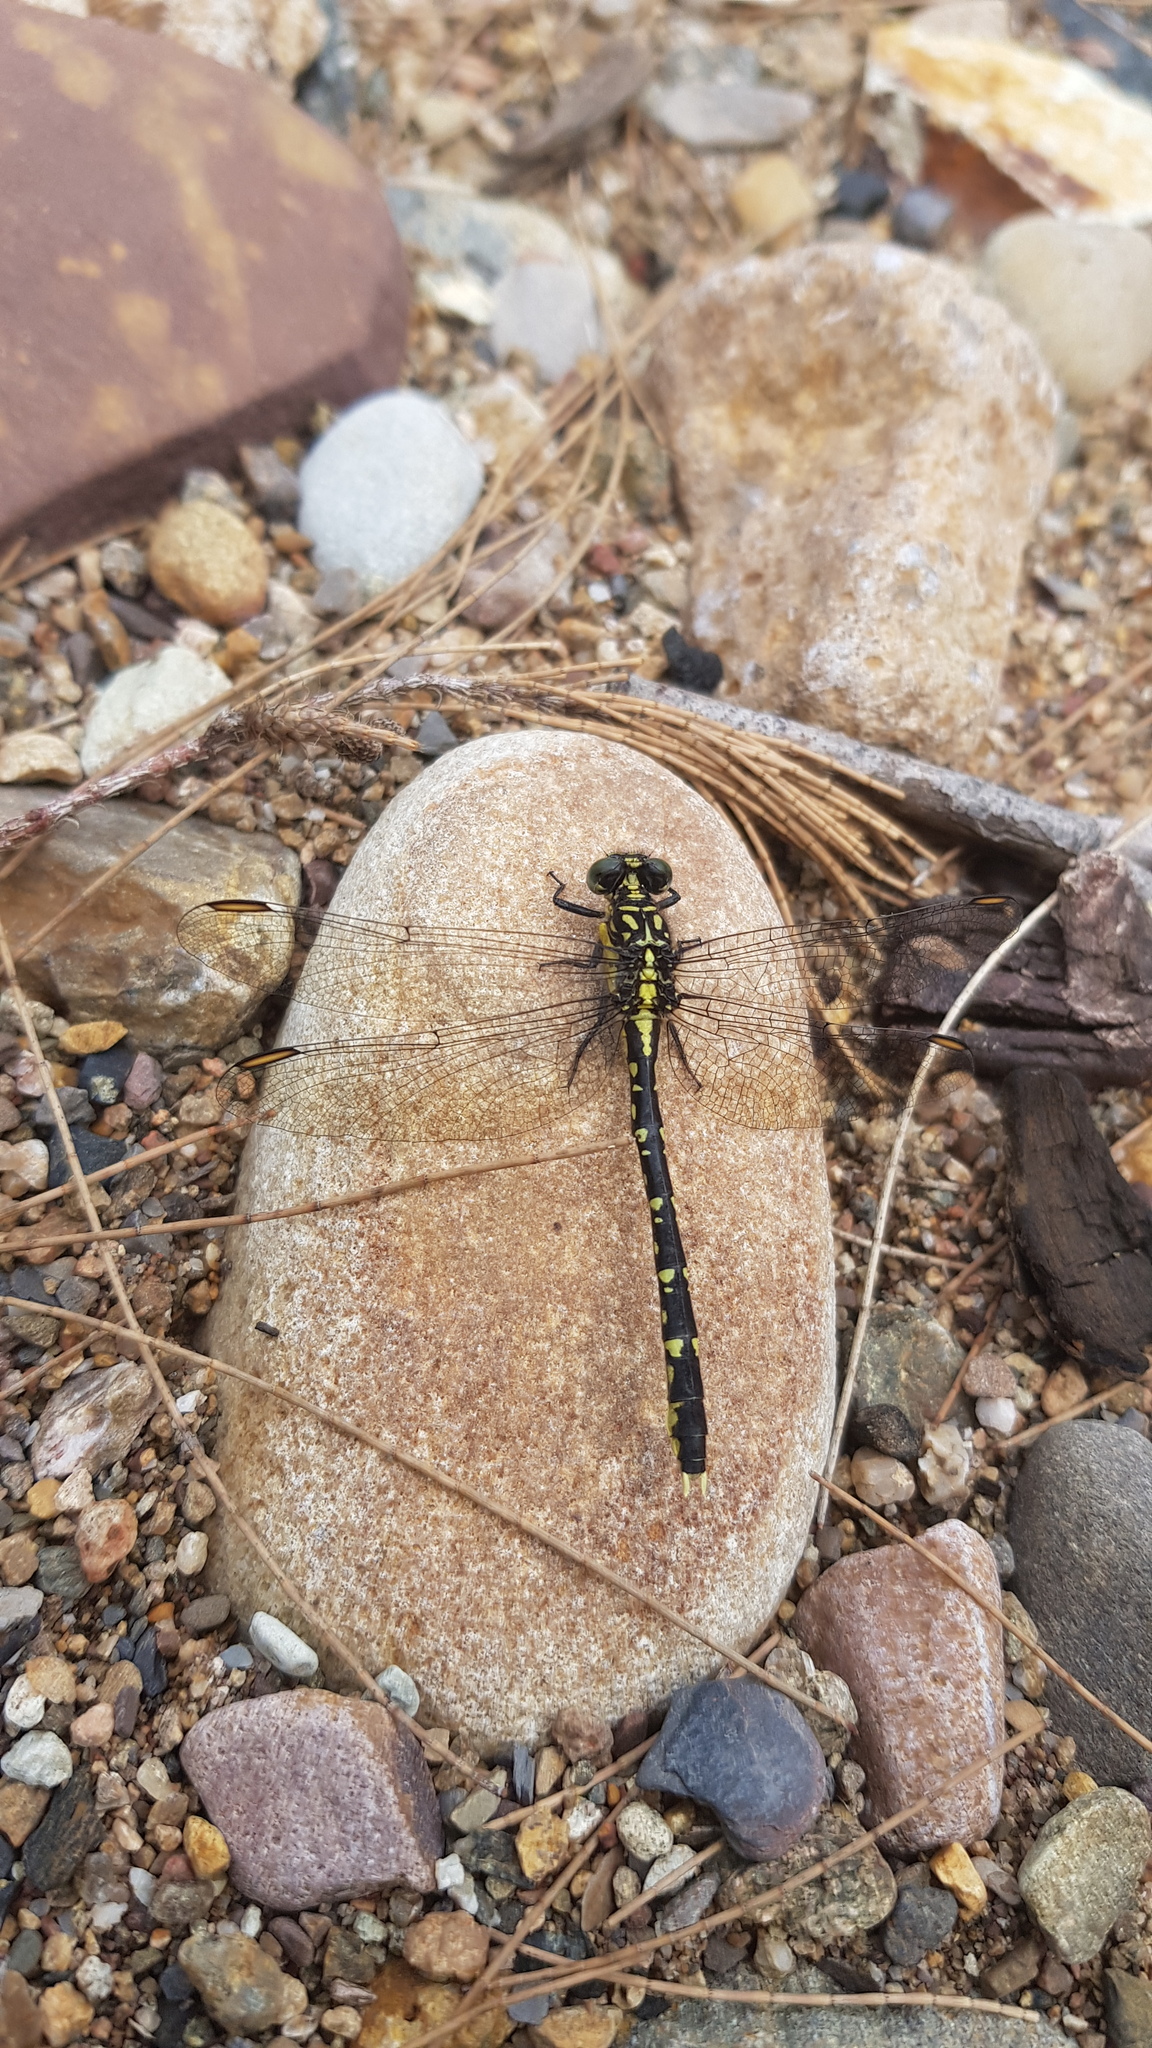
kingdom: Animalia
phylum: Arthropoda
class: Insecta
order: Odonata
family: Gomphidae
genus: Hemigomphus
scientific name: Hemigomphus gouldii
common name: Southern vicetail
